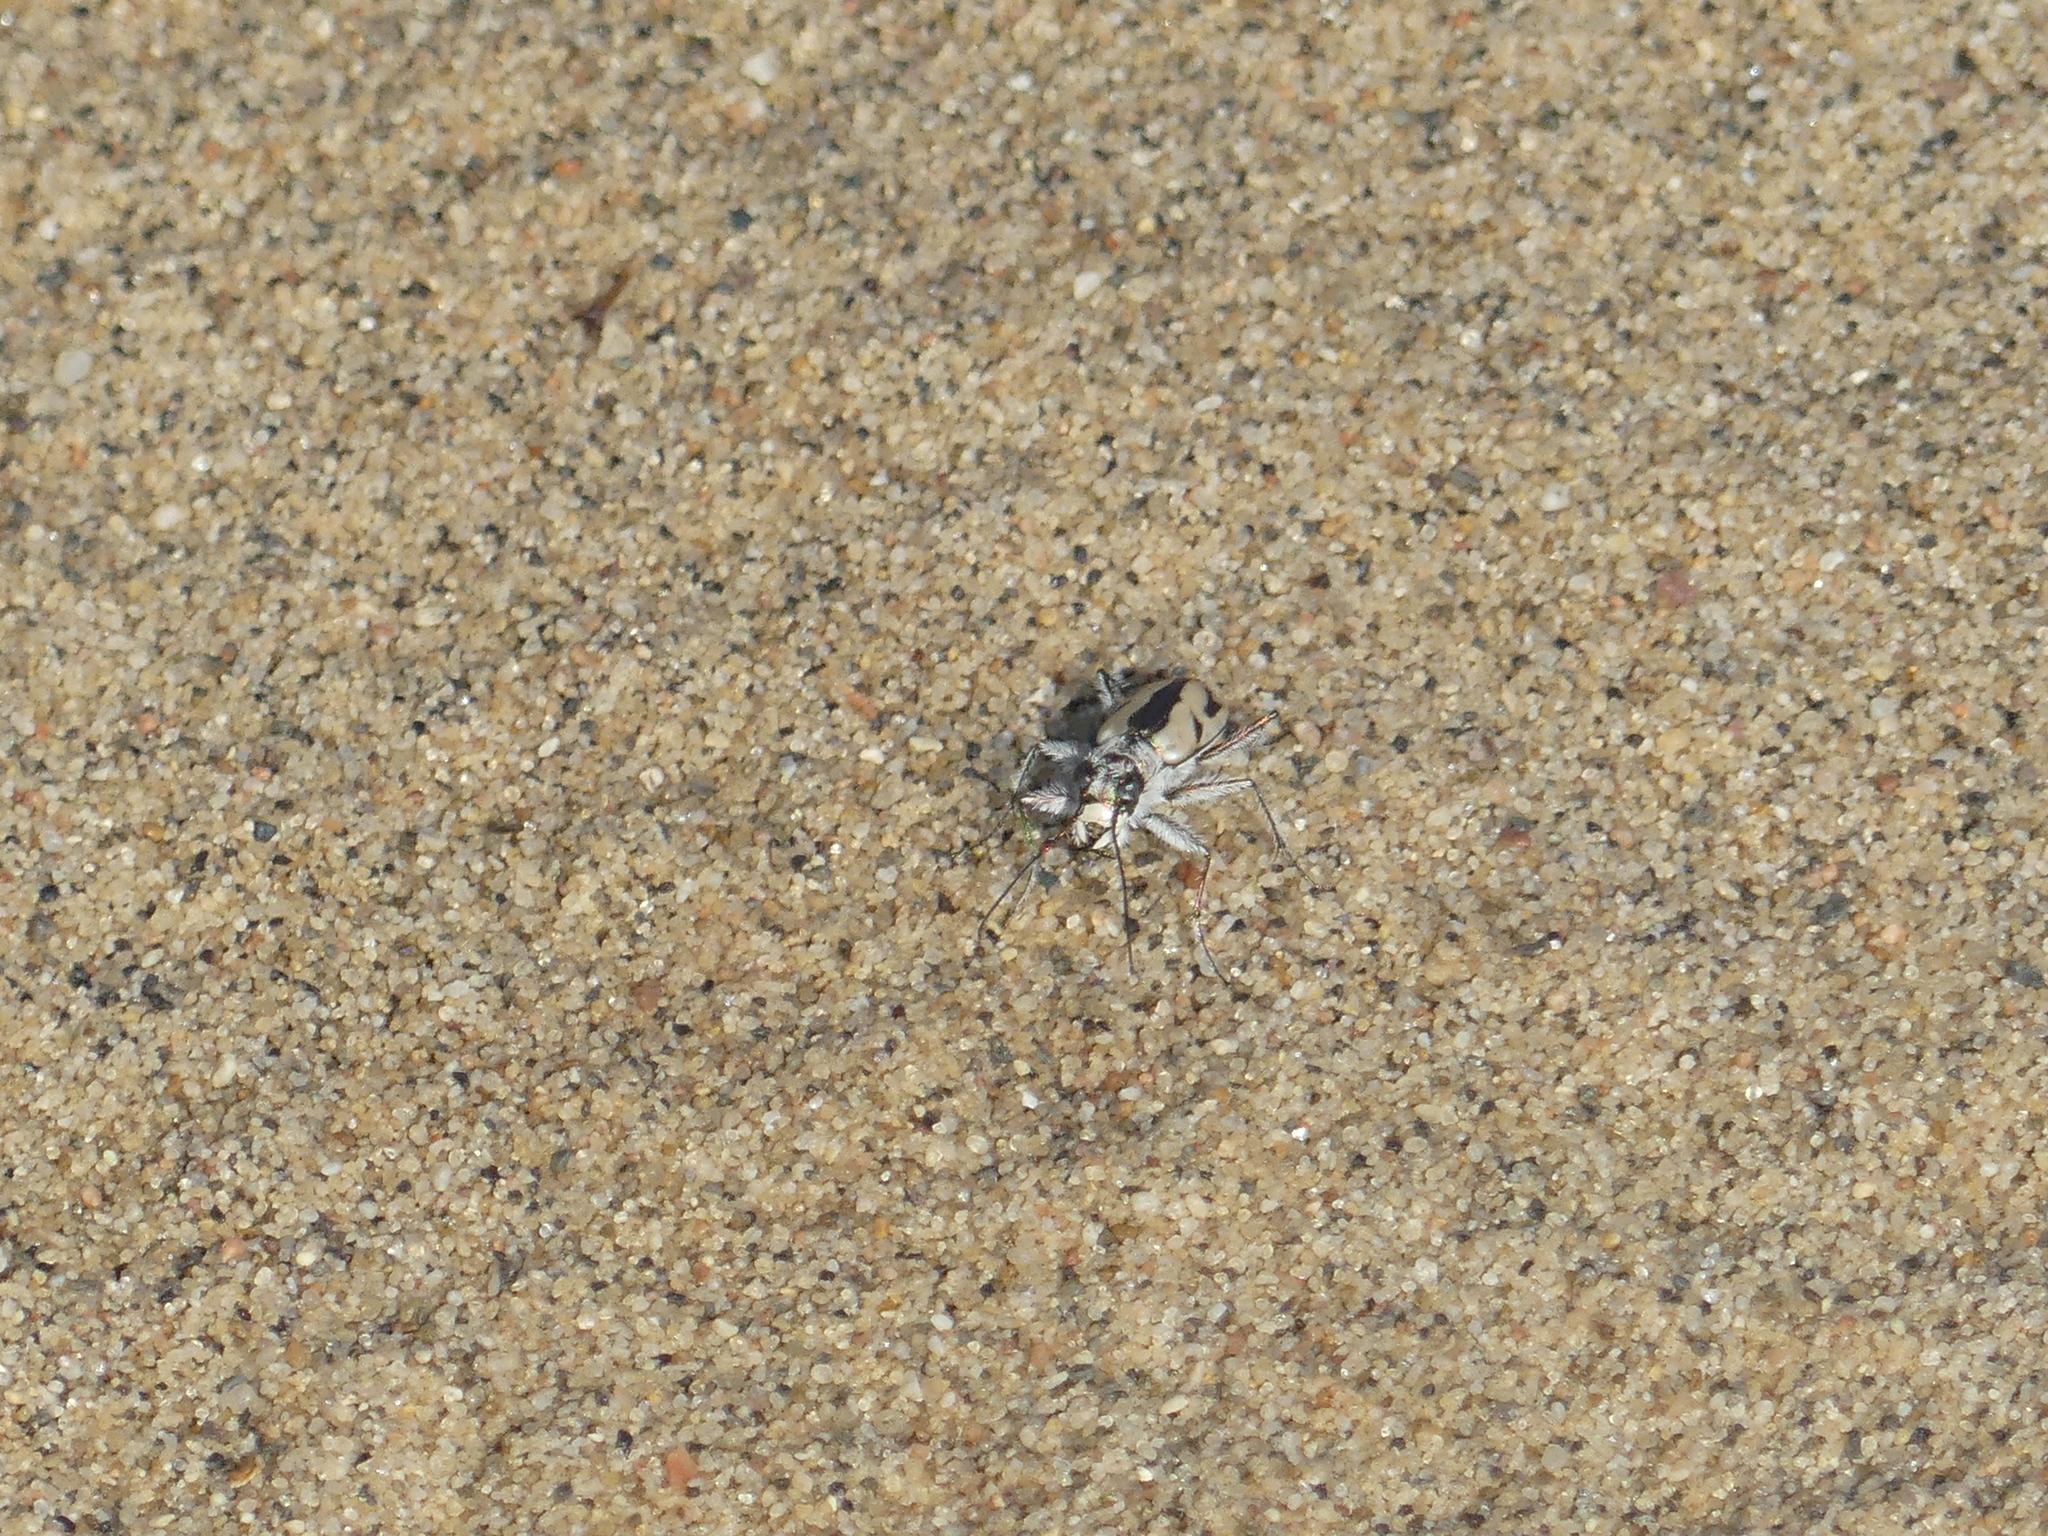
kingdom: Animalia
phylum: Arthropoda
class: Insecta
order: Coleoptera
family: Carabidae
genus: Cicindela
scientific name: Cicindela limbata
